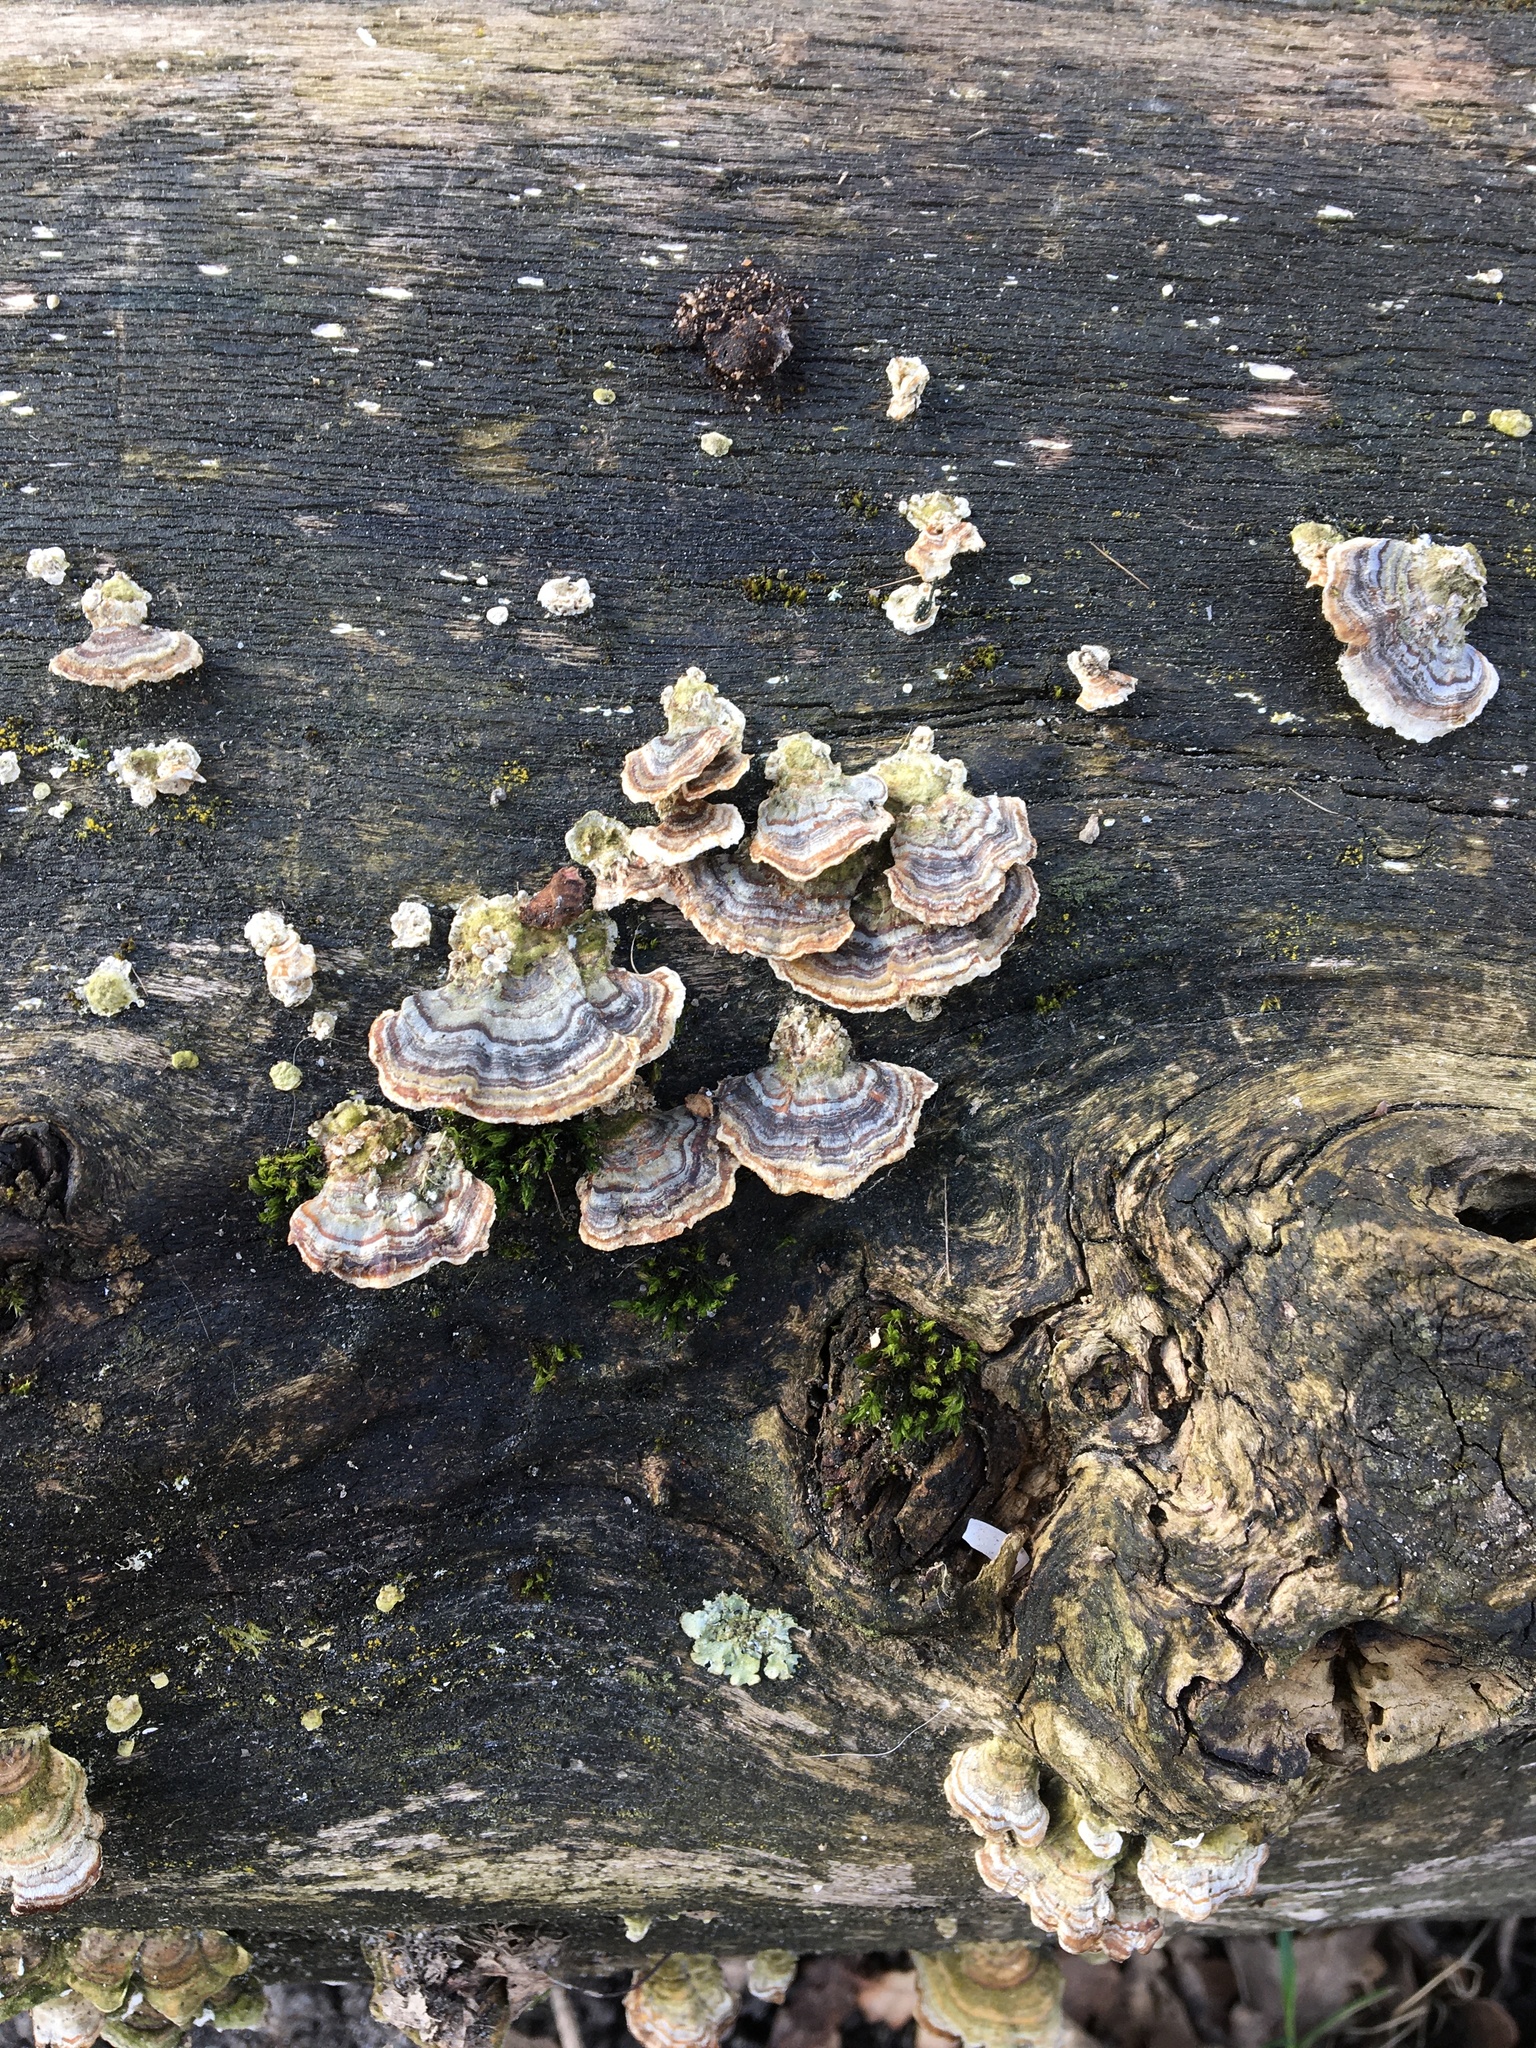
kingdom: Fungi
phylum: Basidiomycota
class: Agaricomycetes
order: Polyporales
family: Polyporaceae
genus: Trametes
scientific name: Trametes versicolor
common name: Turkeytail
